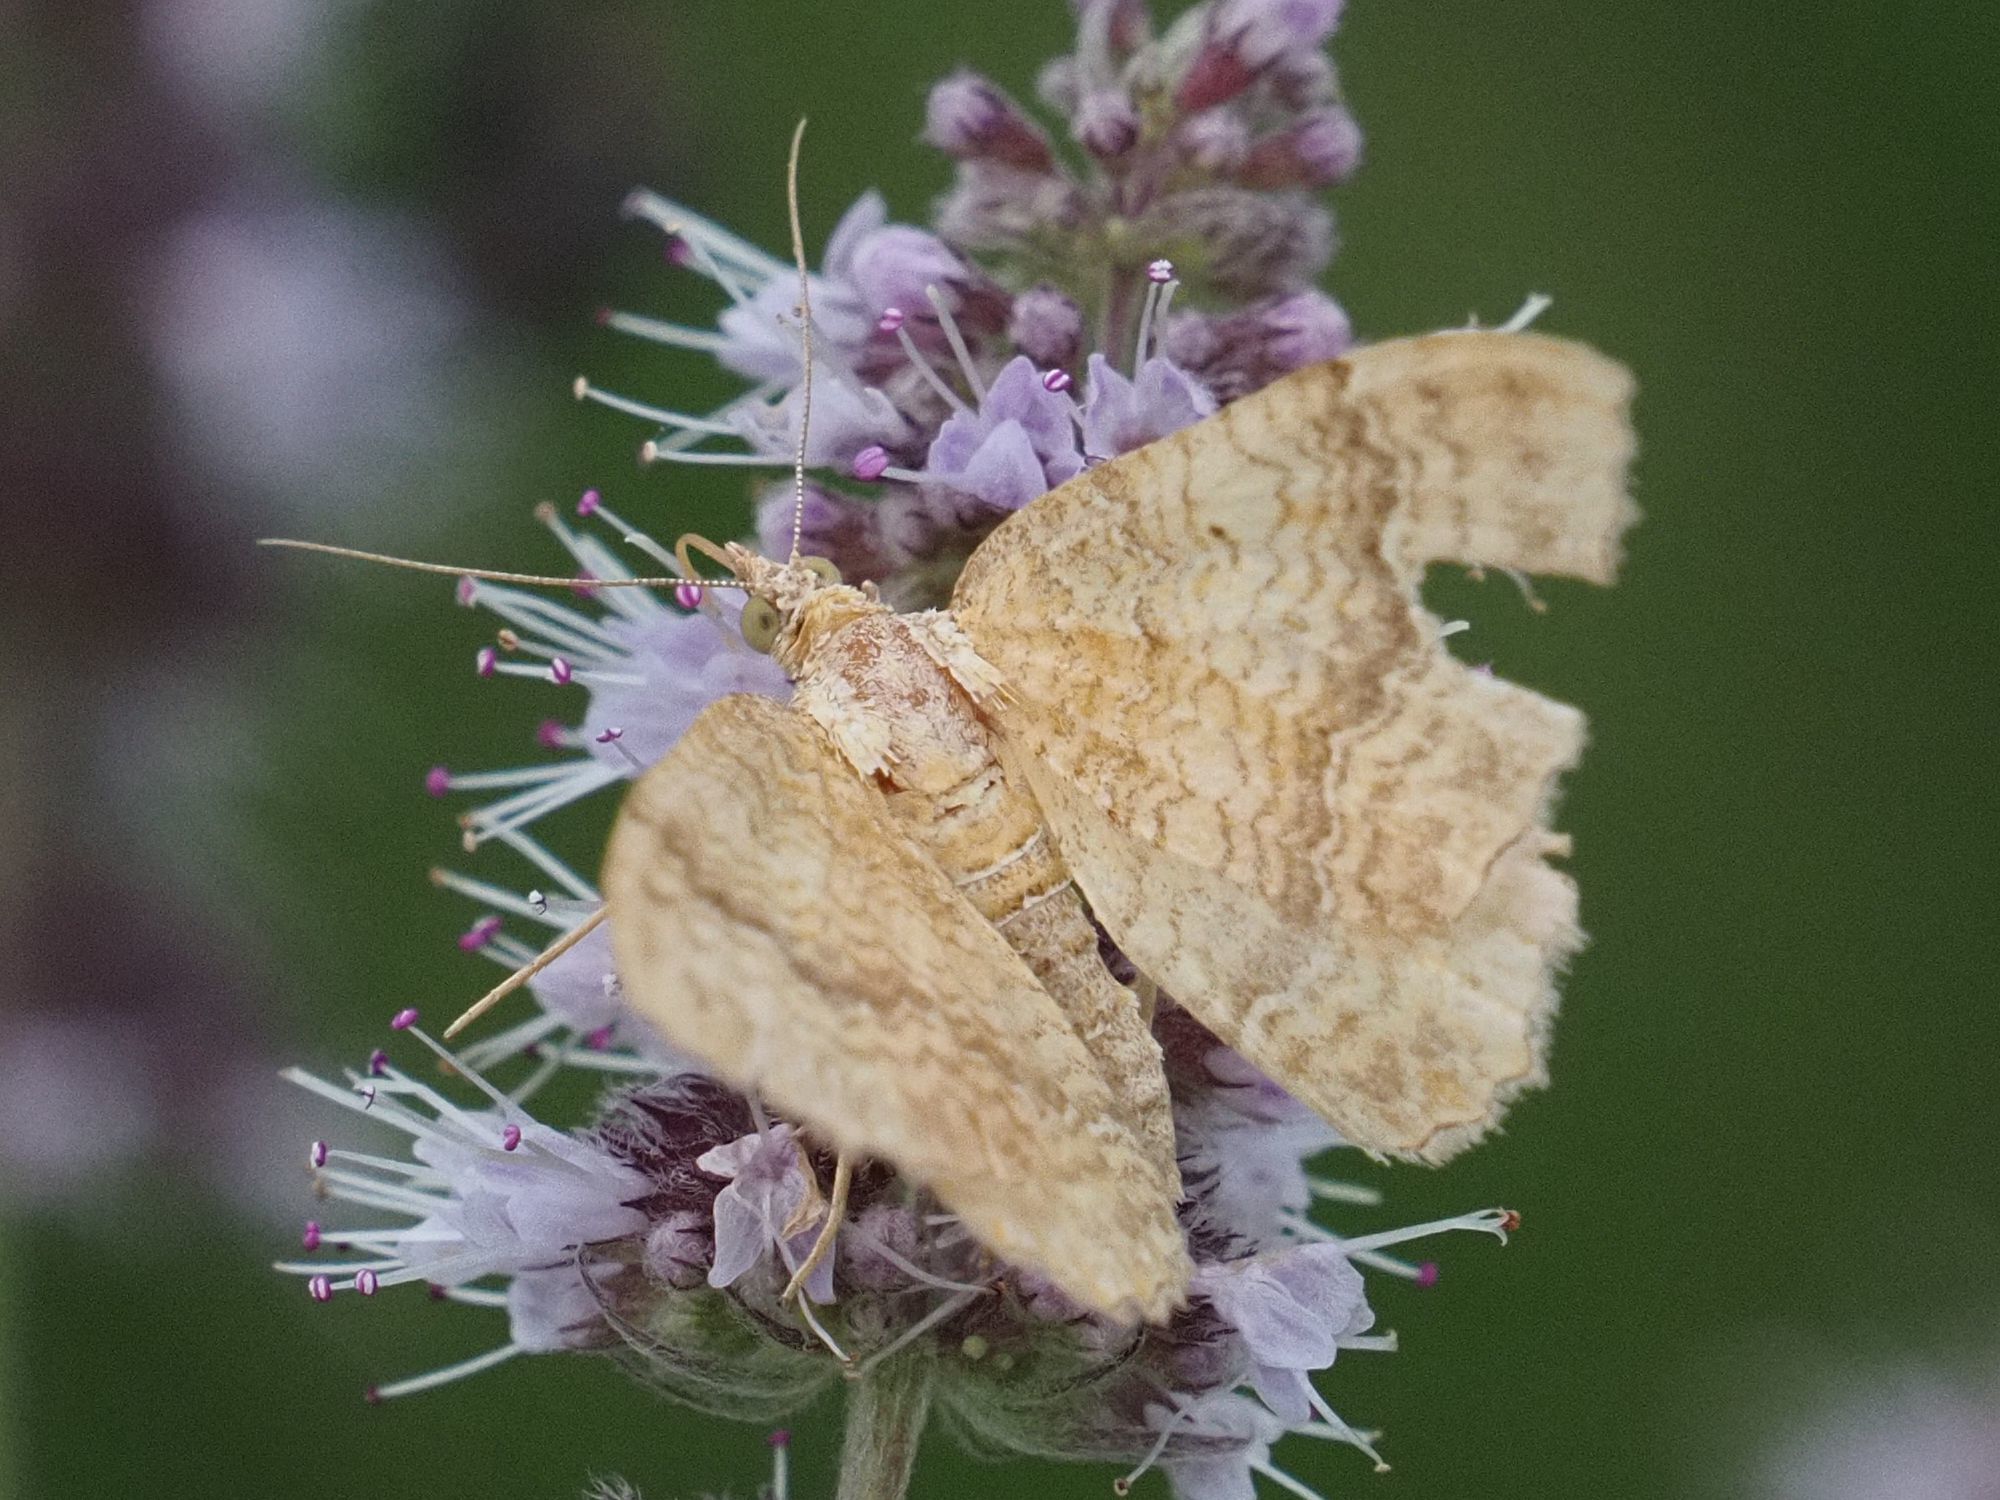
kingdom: Animalia
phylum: Arthropoda
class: Insecta
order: Lepidoptera
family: Geometridae
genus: Camptogramma
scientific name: Camptogramma bilineata
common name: Yellow shell
